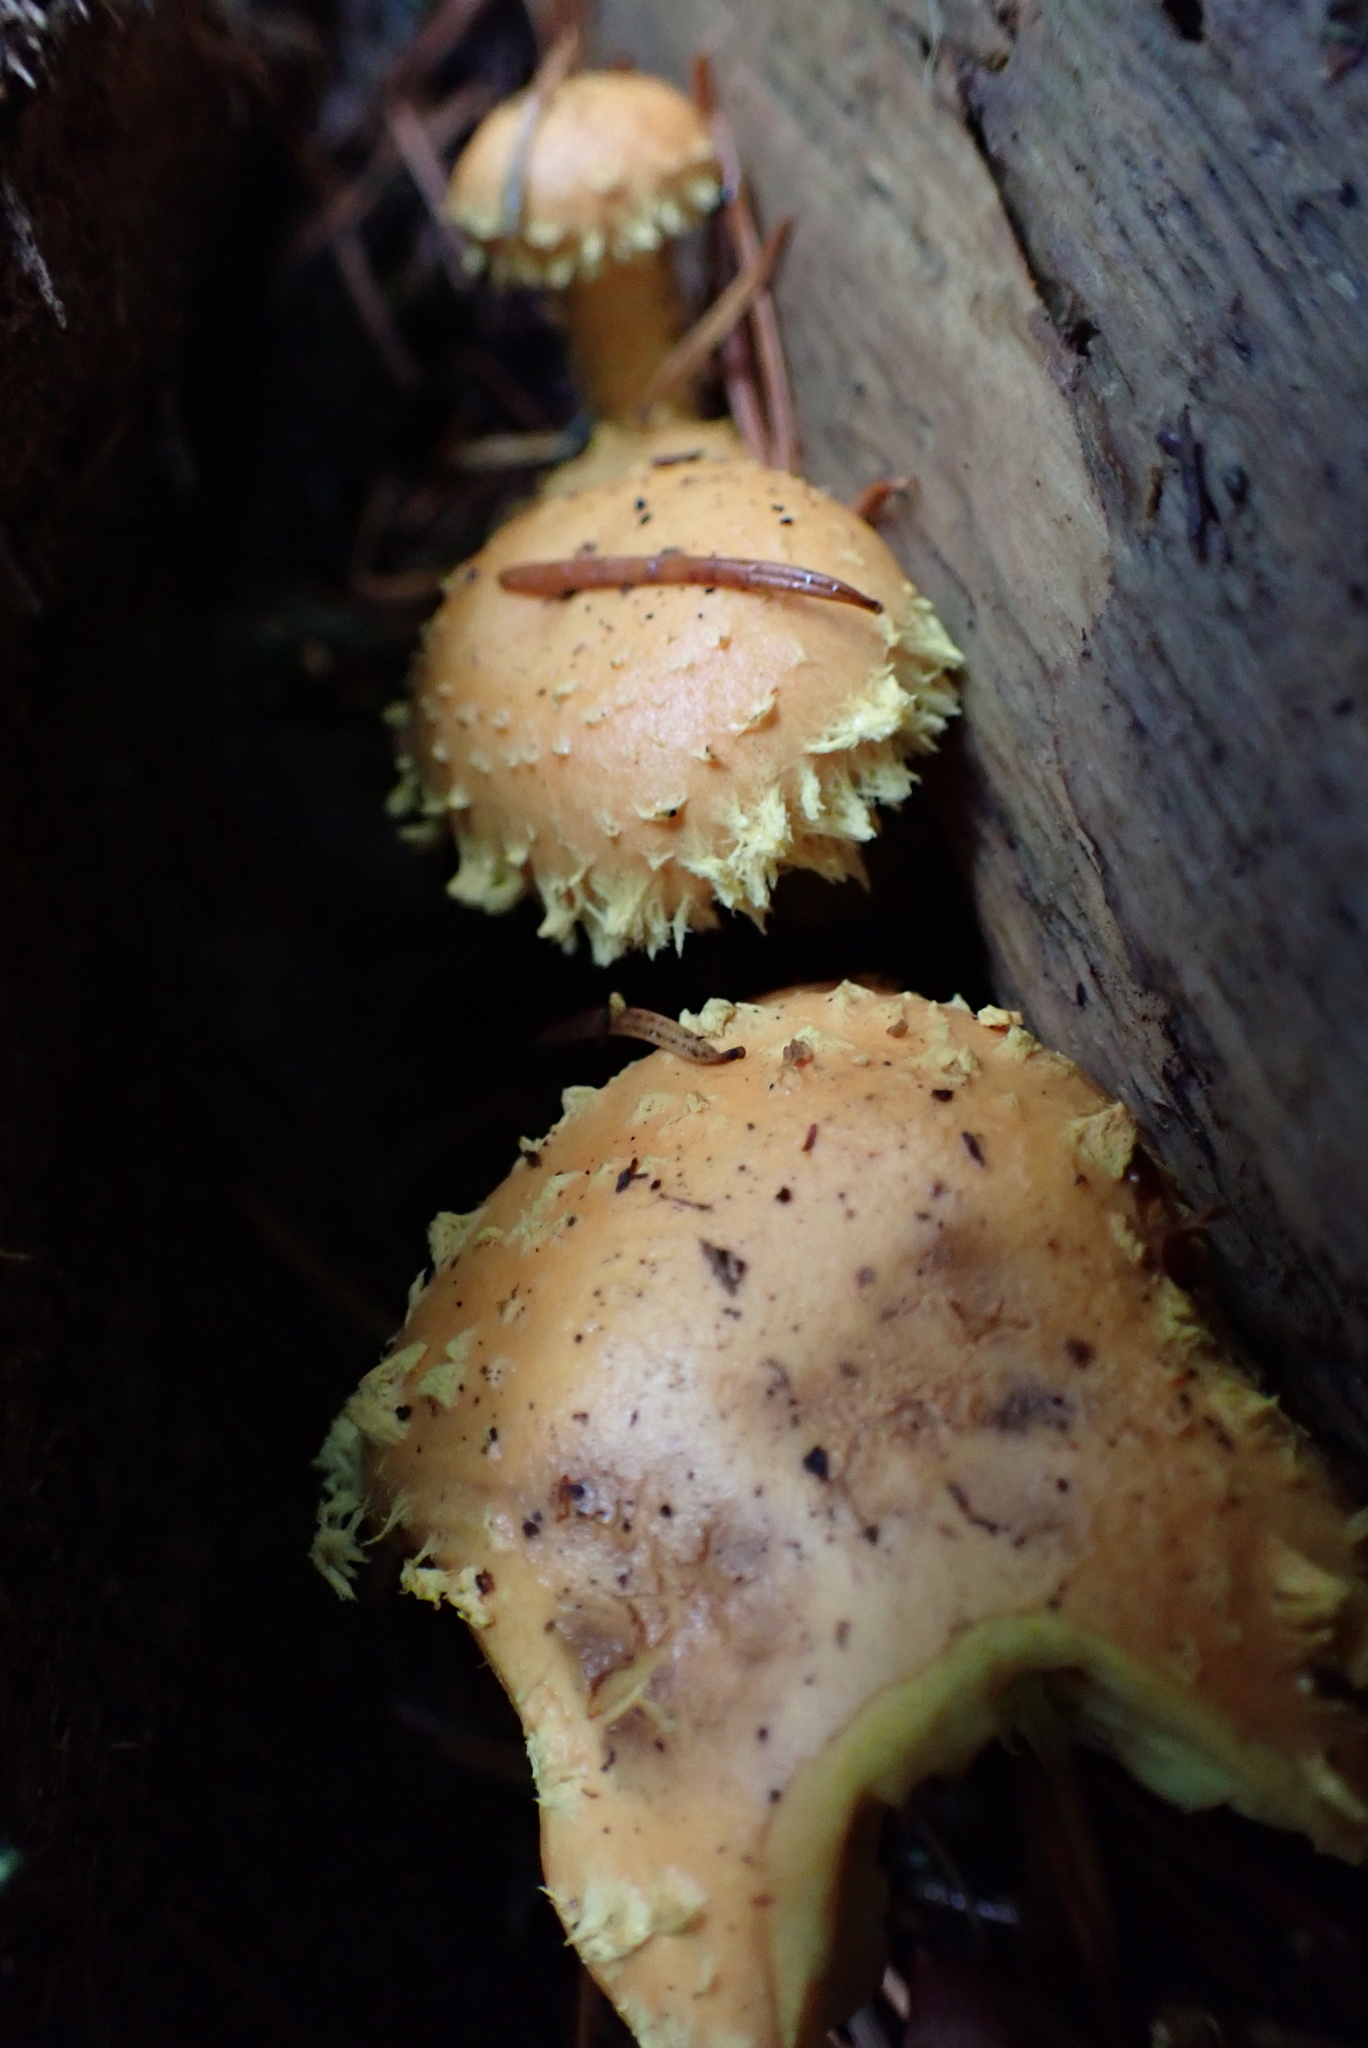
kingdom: Fungi
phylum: Basidiomycota
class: Agaricomycetes
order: Agaricales
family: Strophariaceae
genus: Pholiota
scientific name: Pholiota flammans
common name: Flaming scalycap
